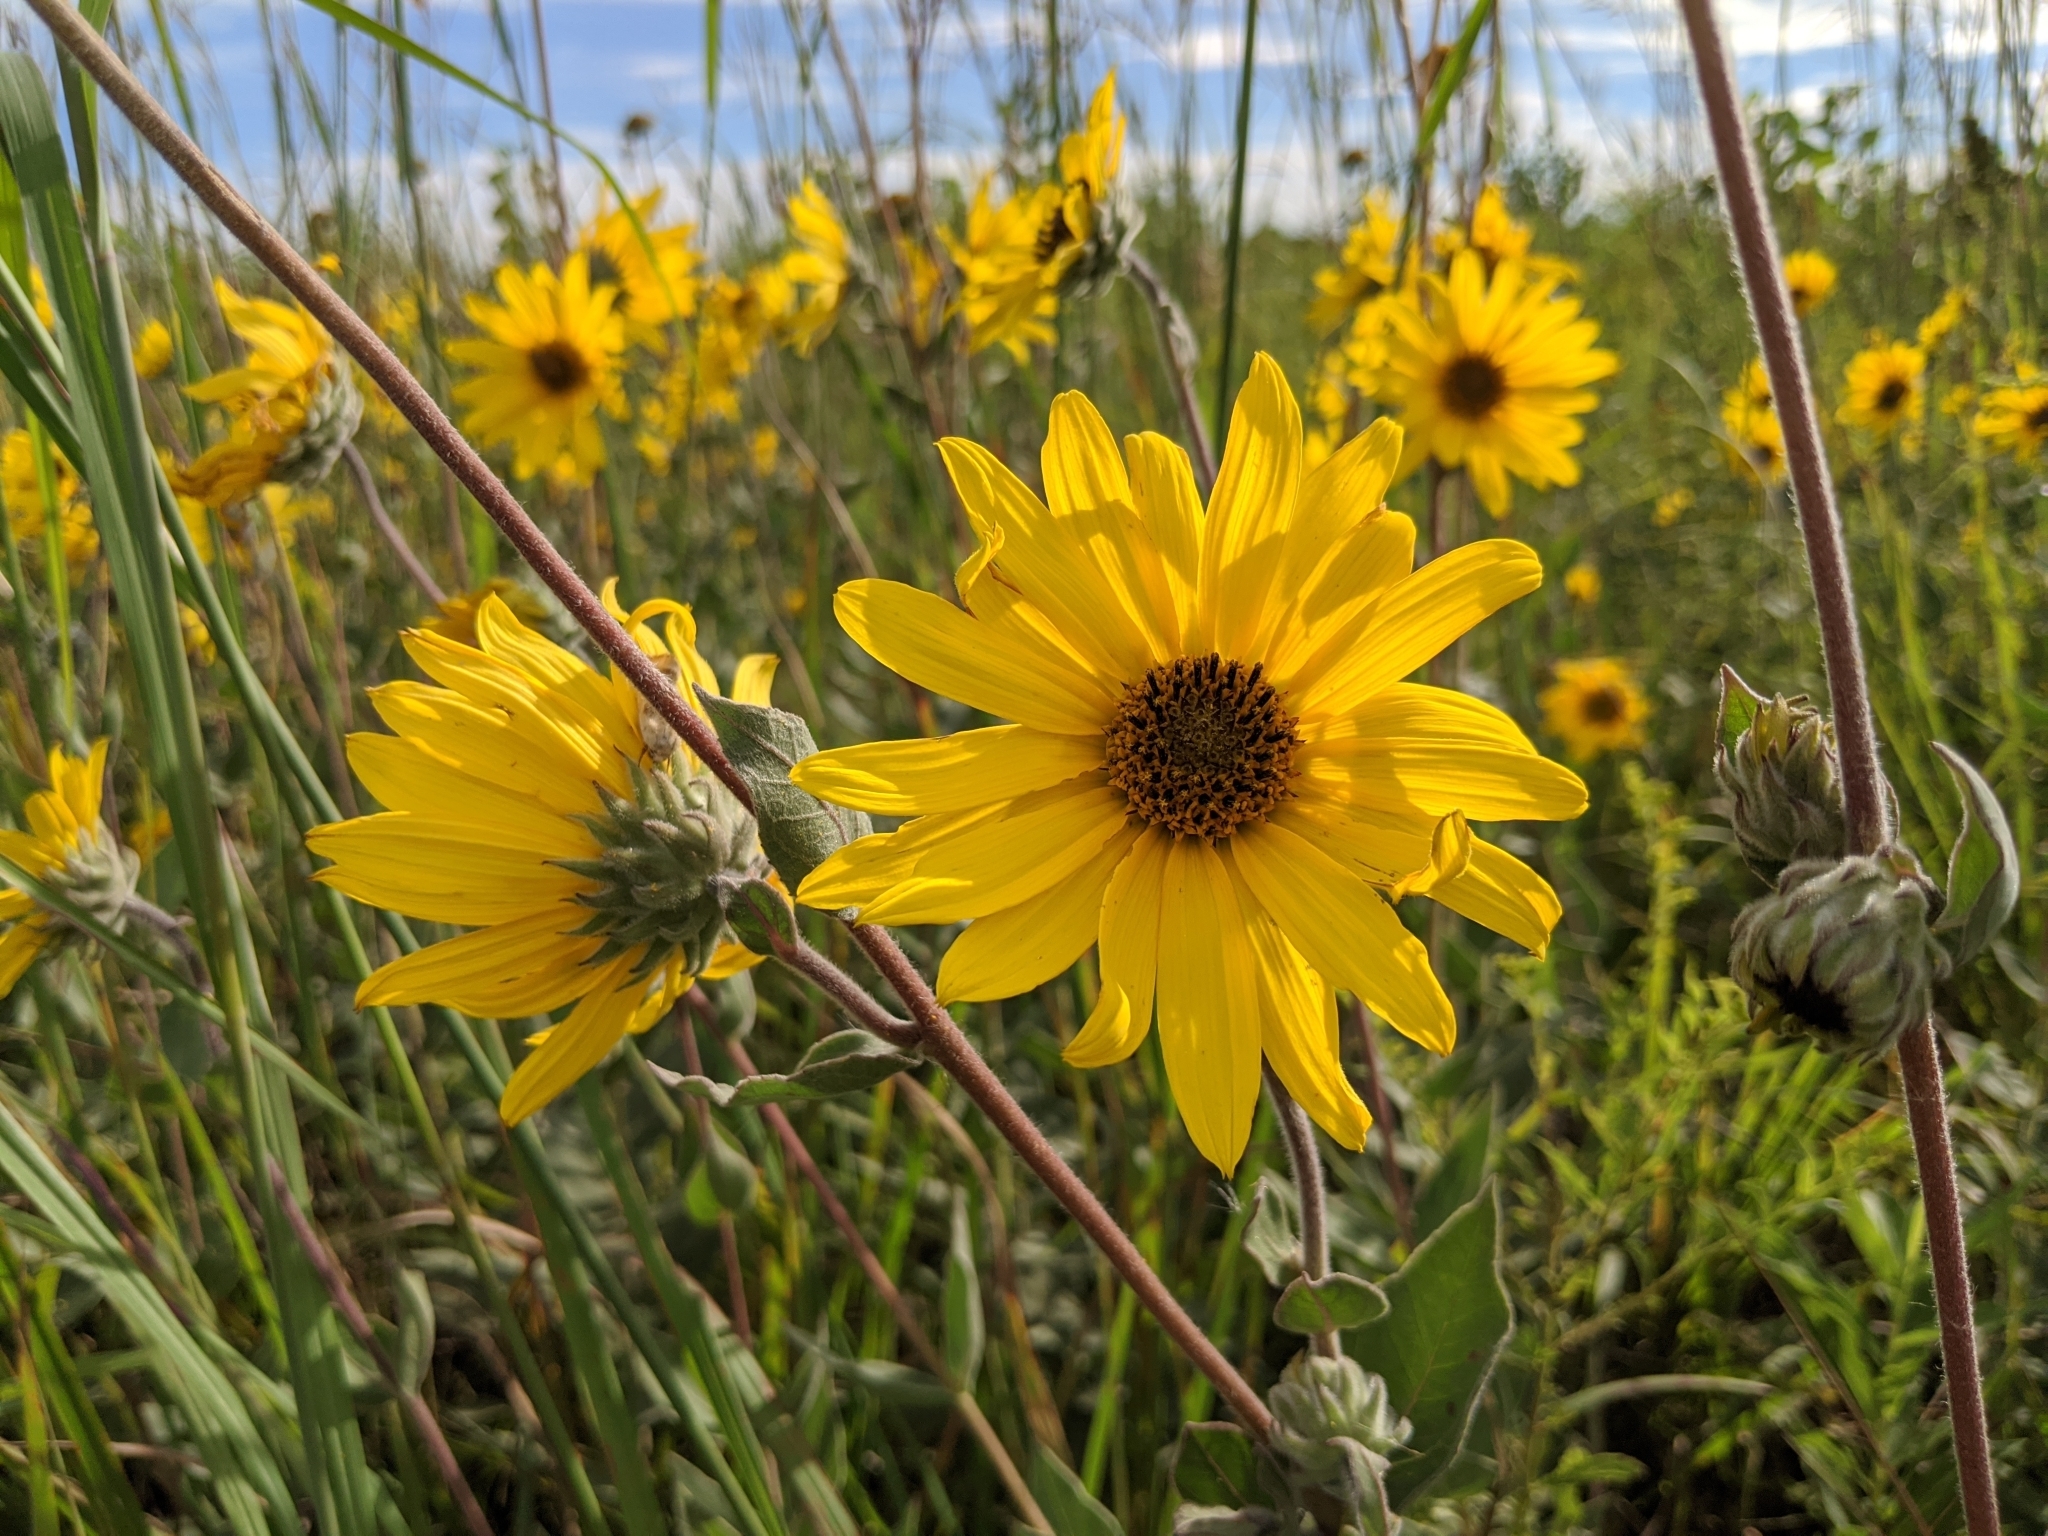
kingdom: Plantae
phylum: Tracheophyta
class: Magnoliopsida
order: Asterales
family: Asteraceae
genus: Helianthus
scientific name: Helianthus mollis
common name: Ashy sunflower
